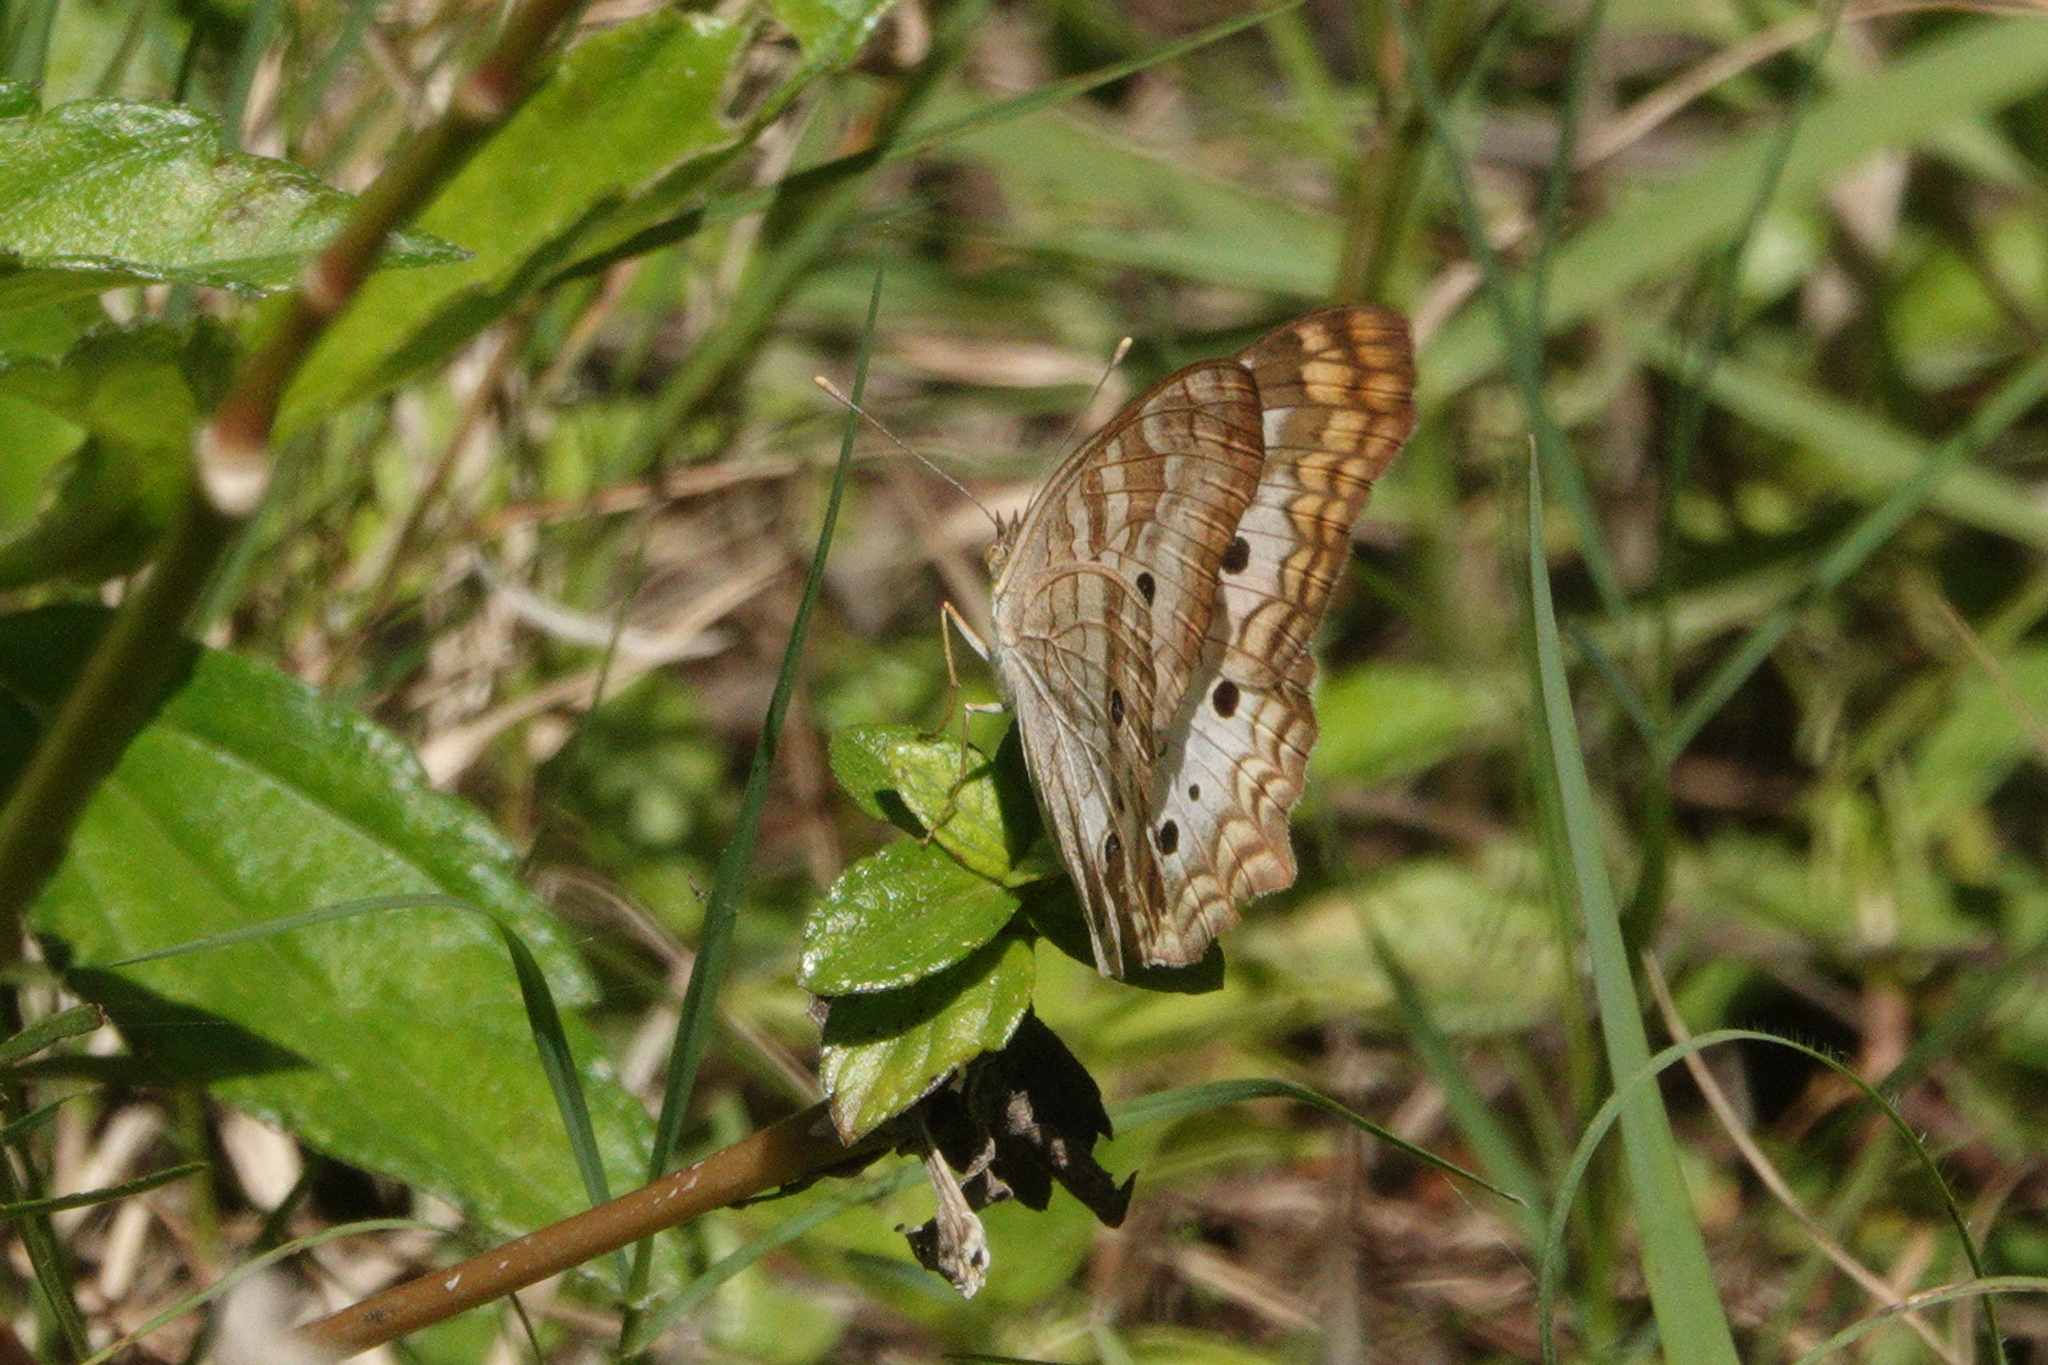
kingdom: Animalia
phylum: Arthropoda
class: Insecta
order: Lepidoptera
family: Nymphalidae
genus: Anartia
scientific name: Anartia jatrophae
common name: White peacock
